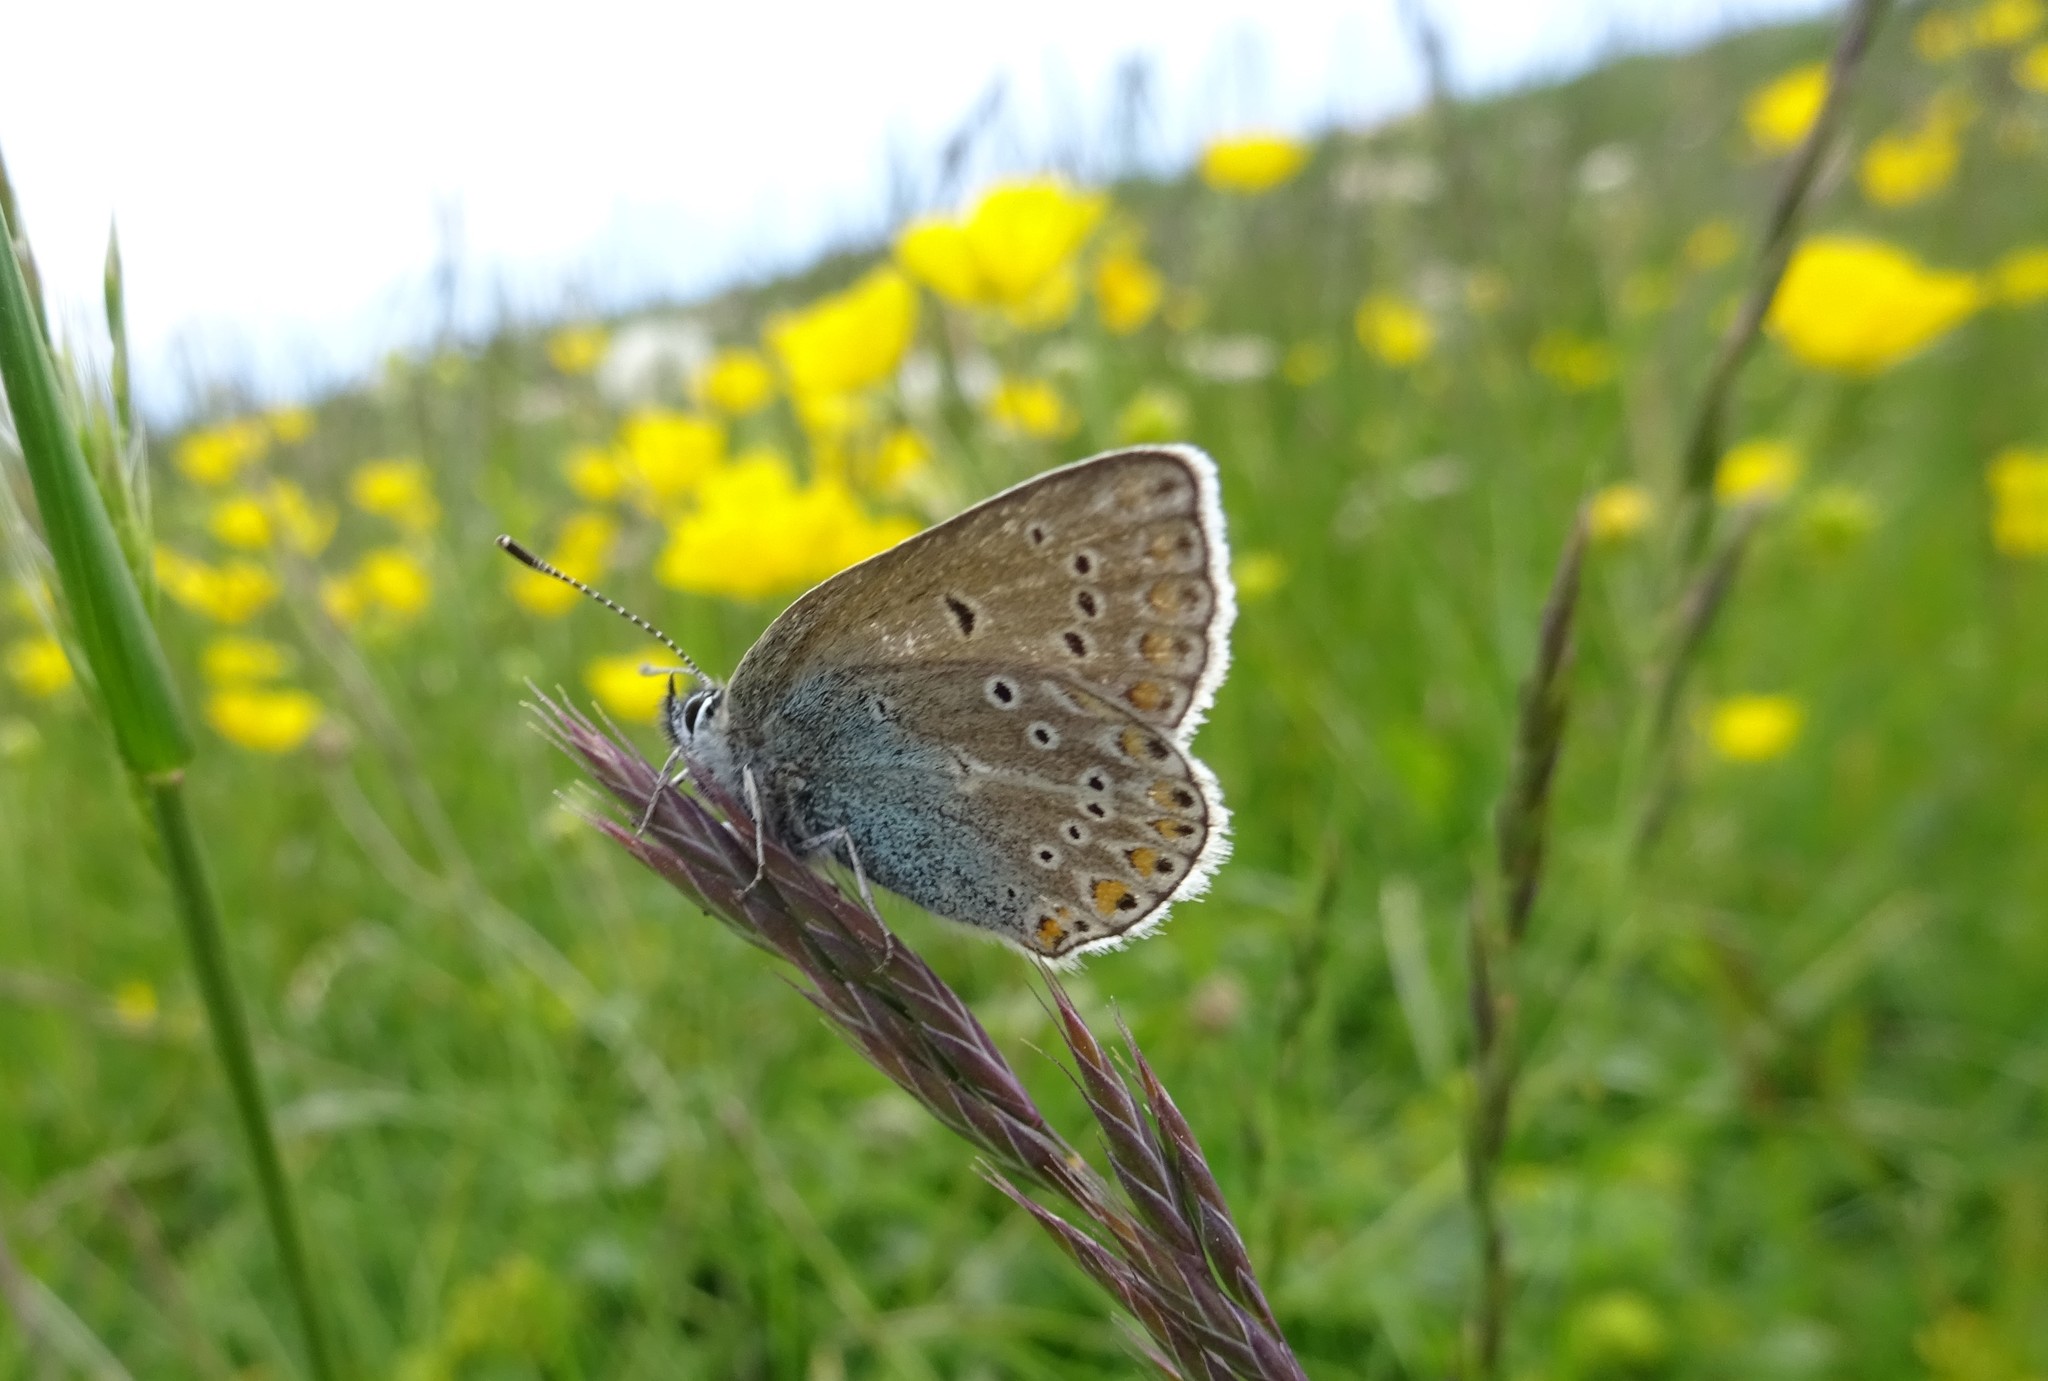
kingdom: Animalia
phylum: Arthropoda
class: Insecta
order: Lepidoptera
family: Lycaenidae
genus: Eumedonia
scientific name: Eumedonia eumedon
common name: Geranium argus
